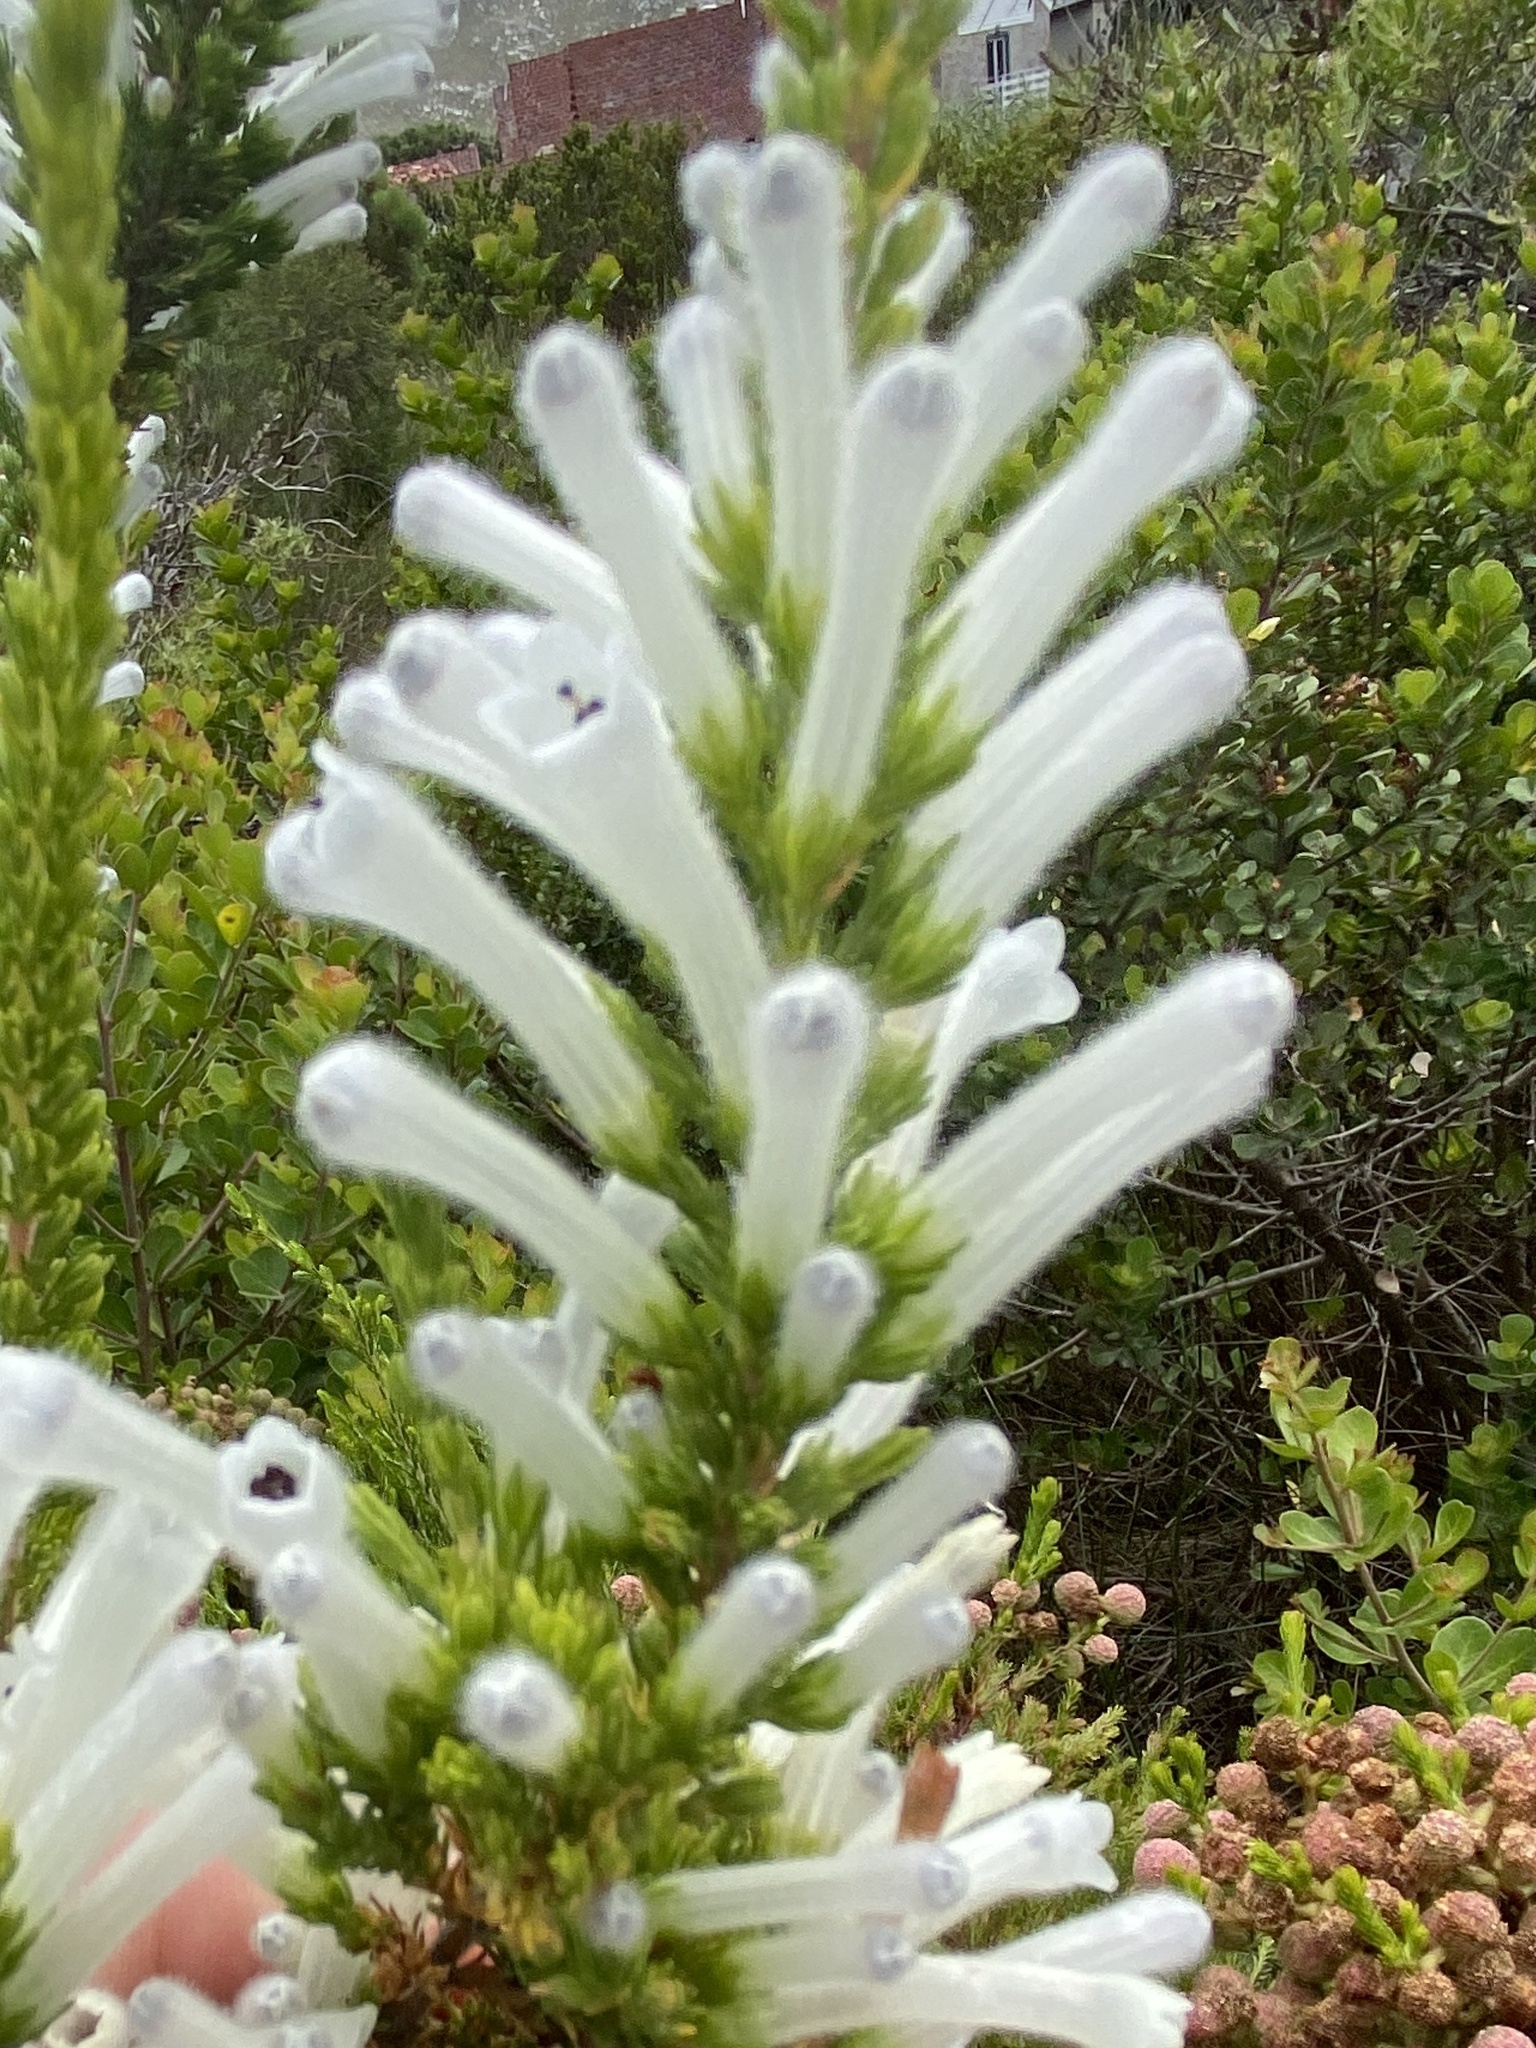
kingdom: Plantae
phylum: Tracheophyta
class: Magnoliopsida
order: Ericales
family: Ericaceae
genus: Erica
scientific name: Erica perspicua
